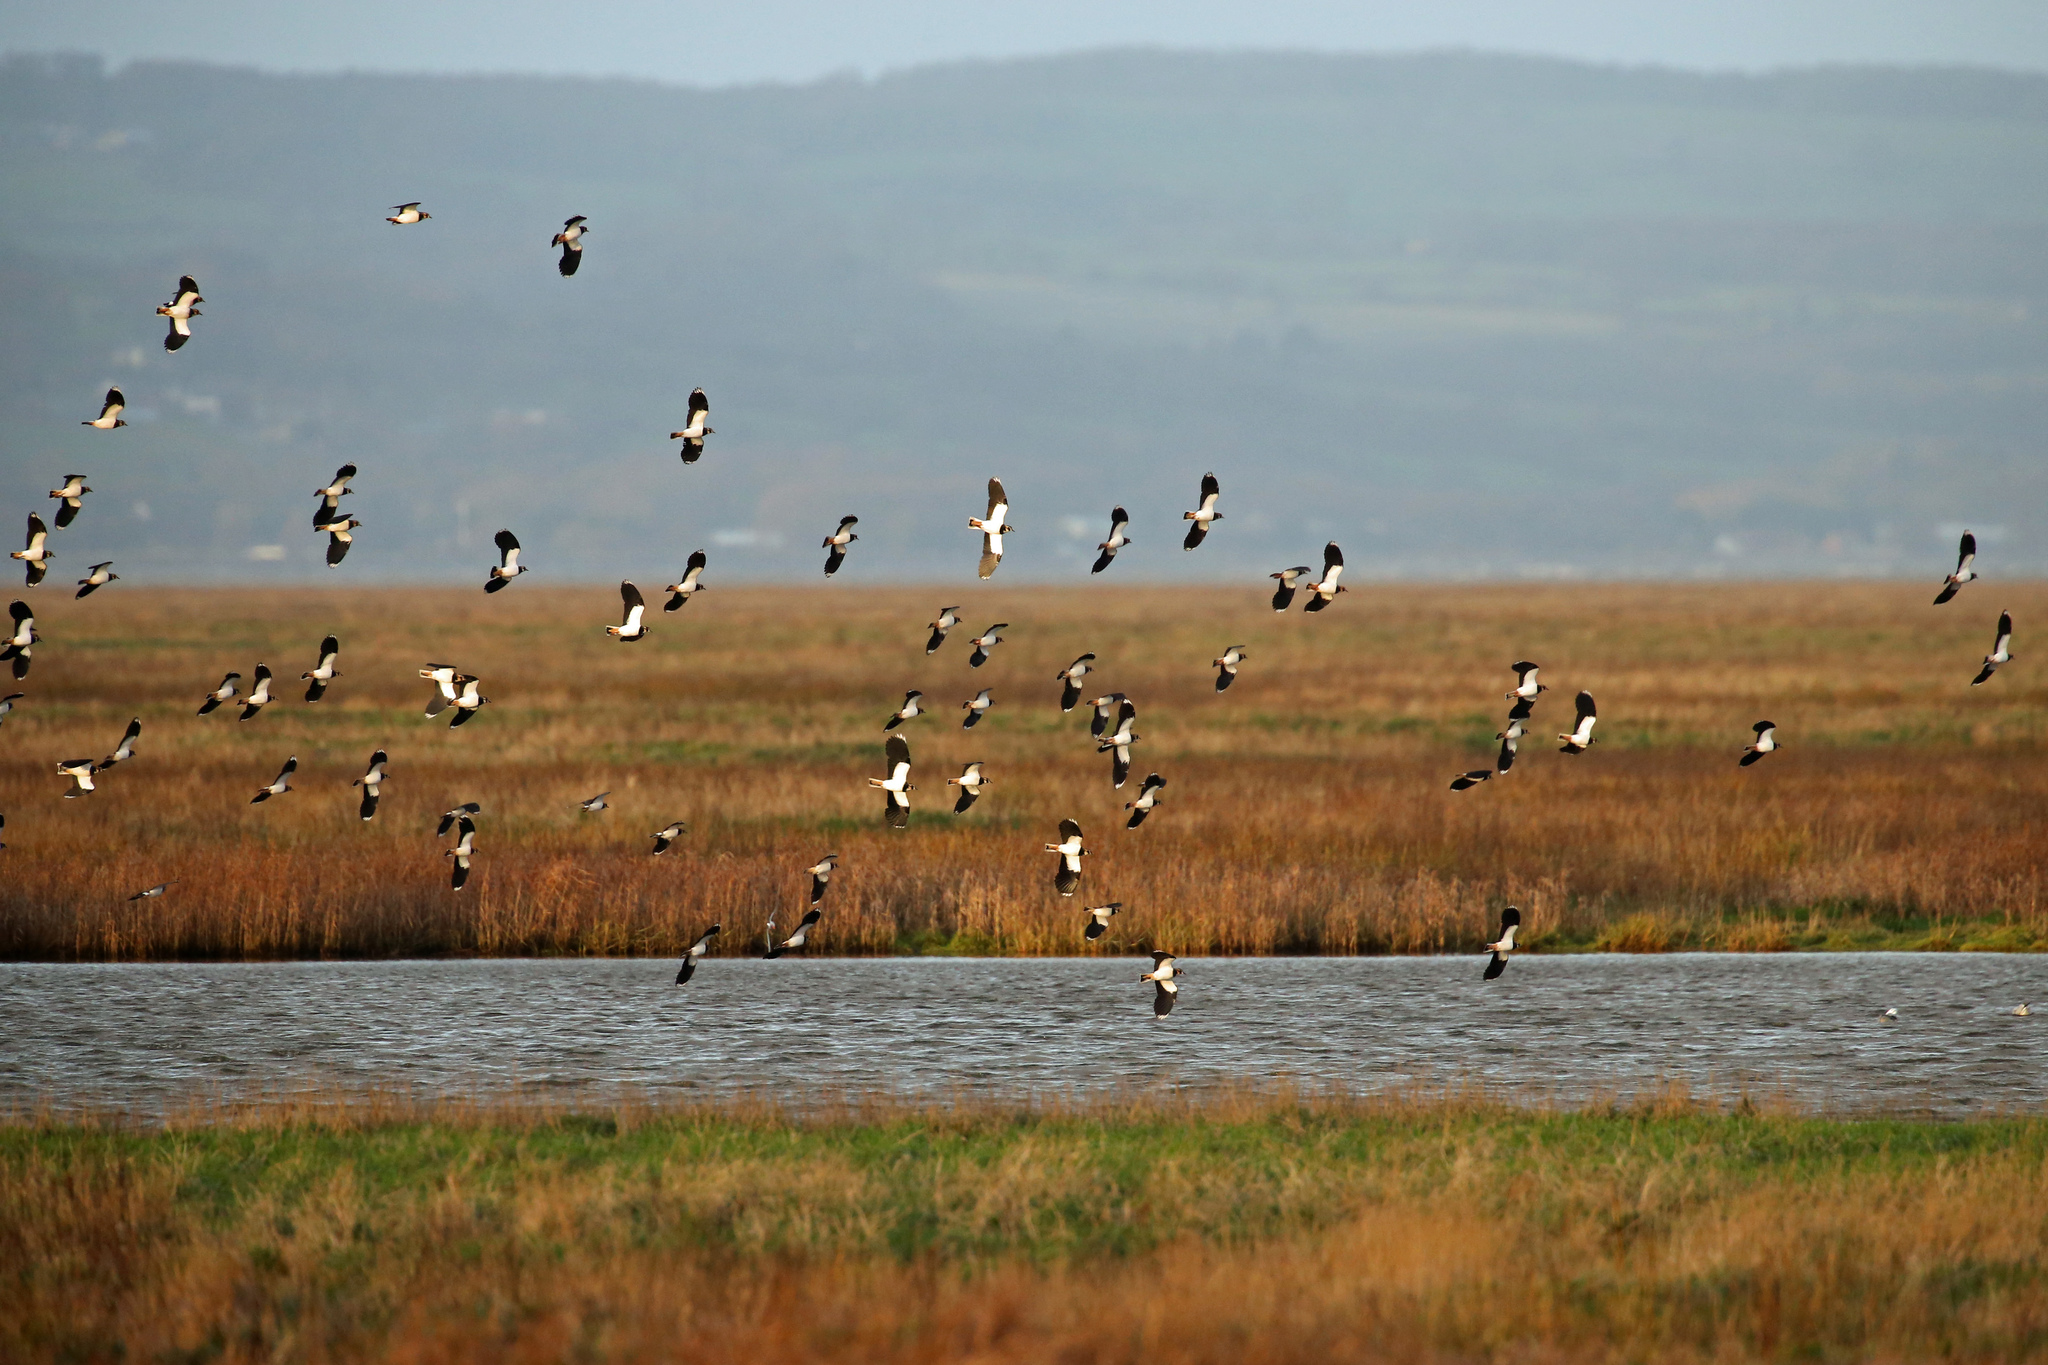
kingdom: Animalia
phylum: Chordata
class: Aves
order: Charadriiformes
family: Charadriidae
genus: Vanellus
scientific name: Vanellus vanellus
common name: Northern lapwing
